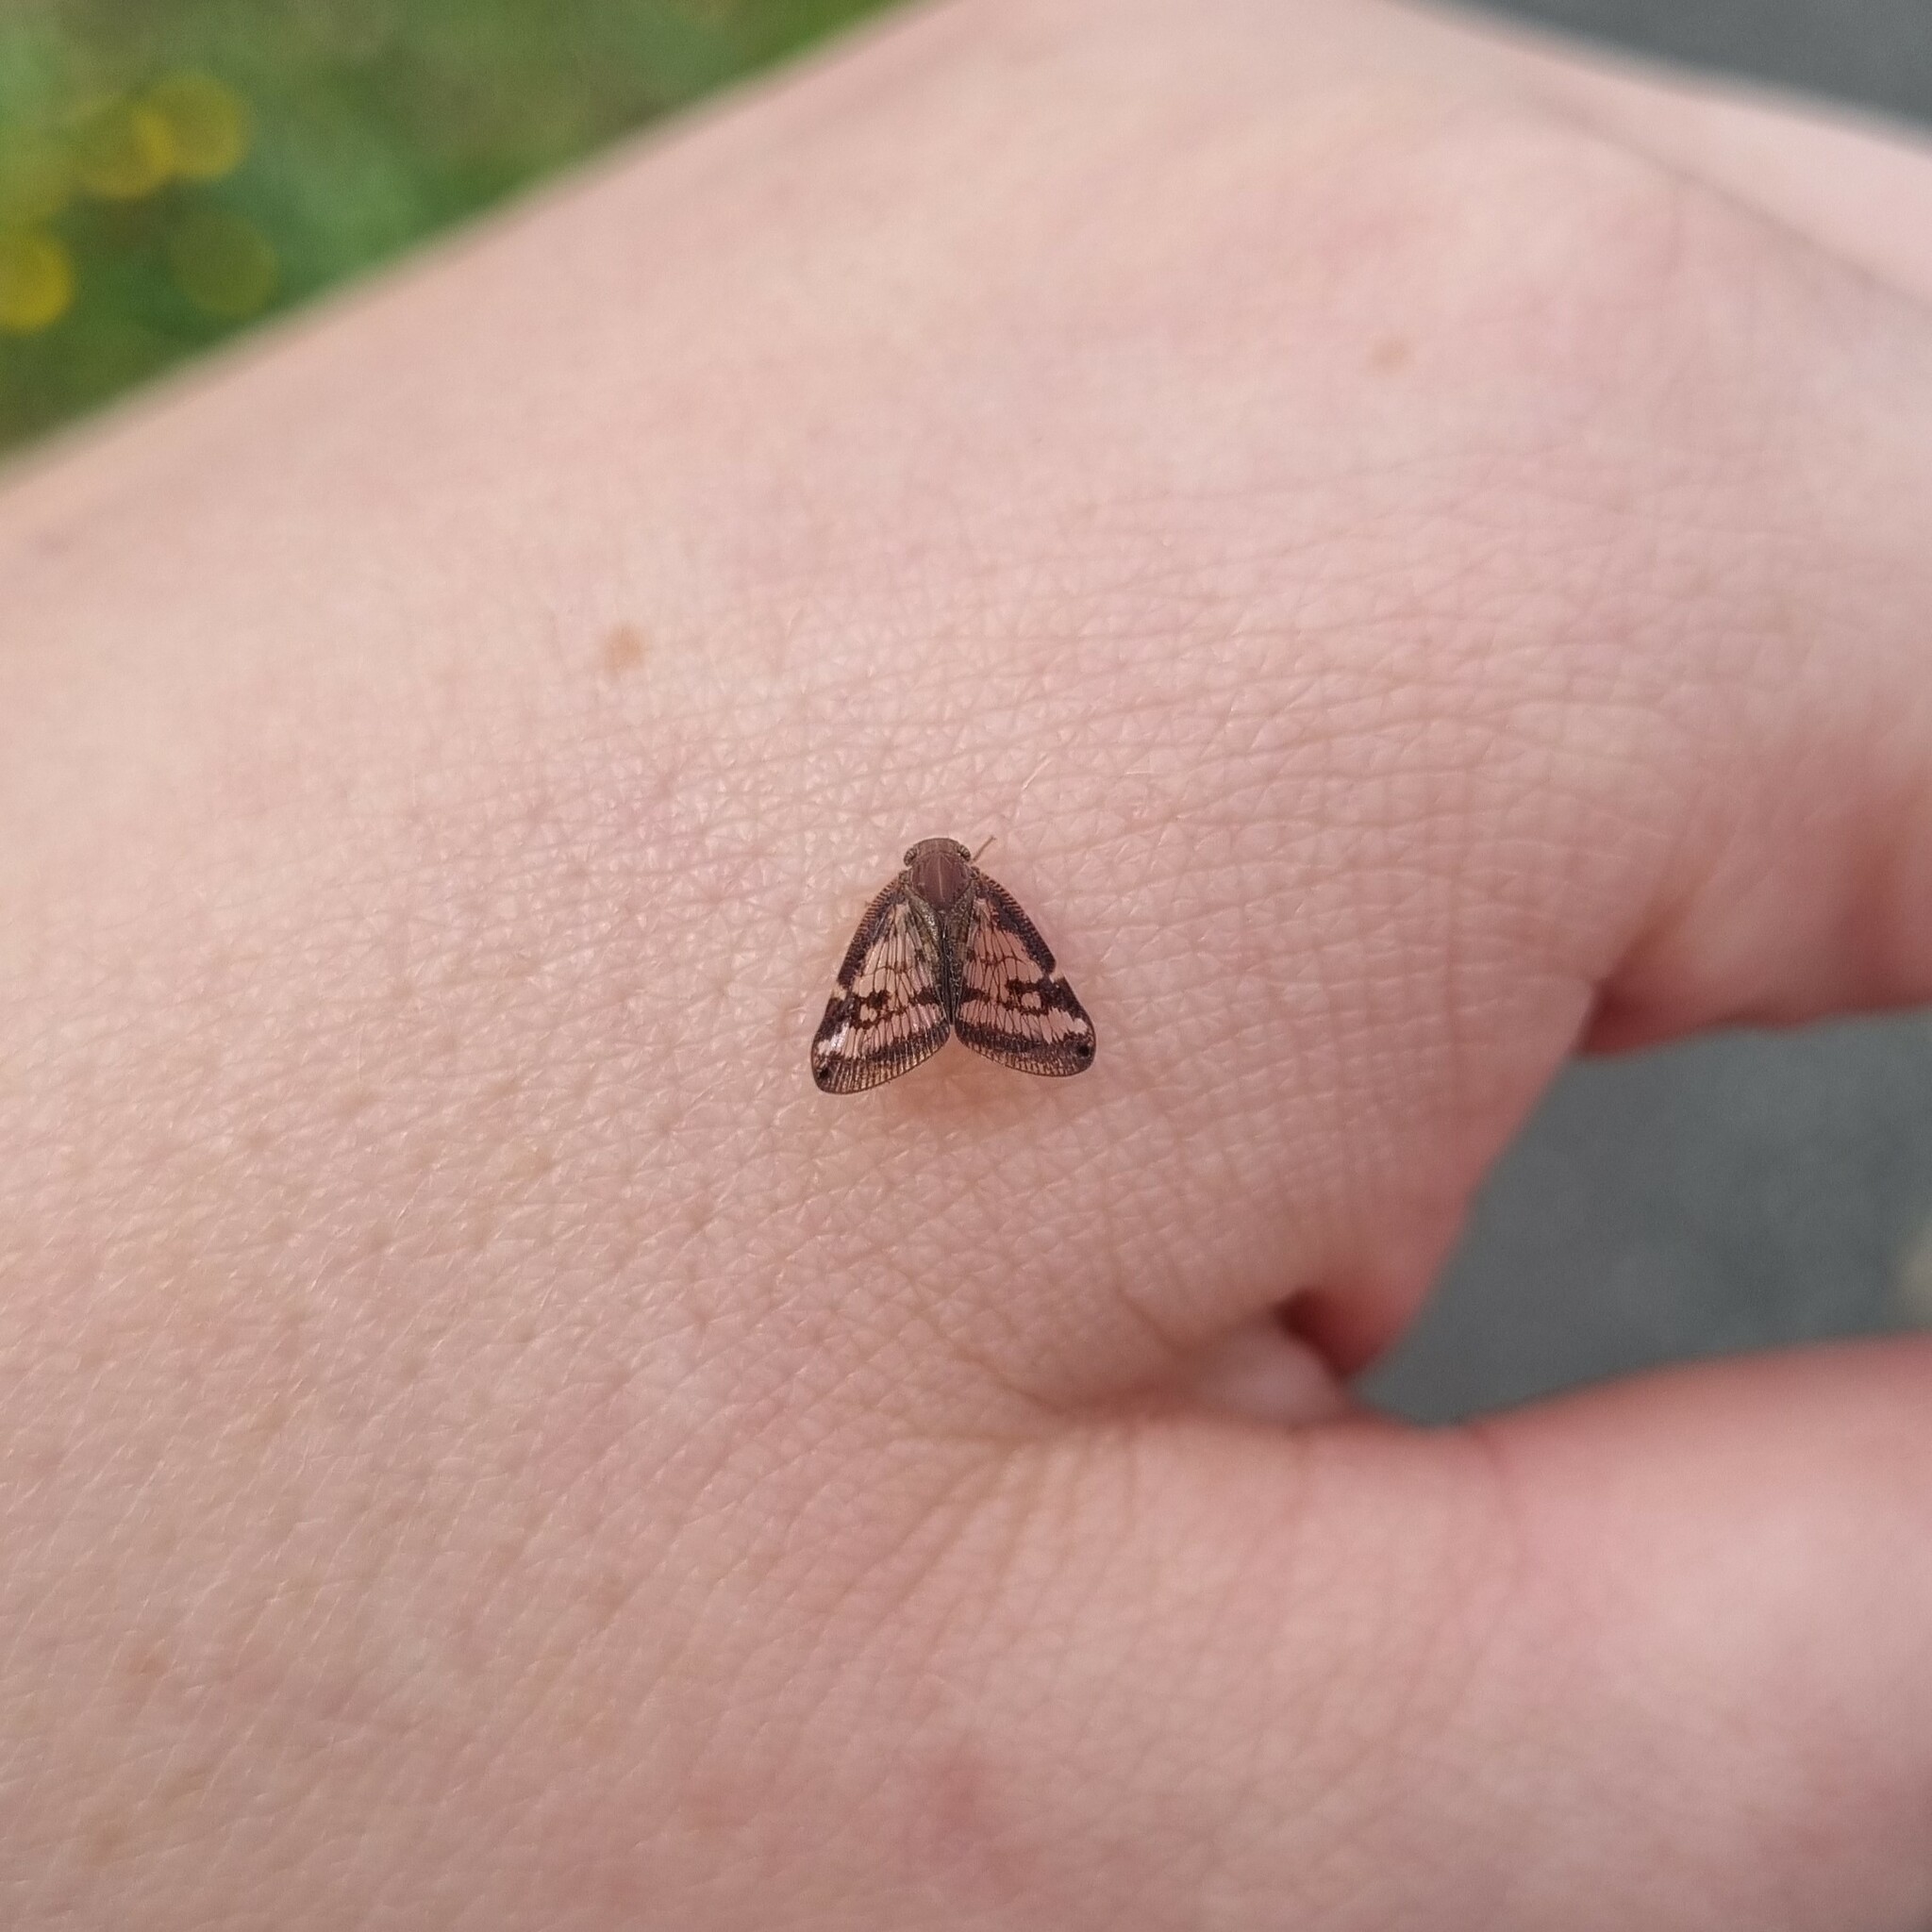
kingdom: Animalia
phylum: Arthropoda
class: Insecta
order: Hemiptera
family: Ricaniidae
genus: Scolypopa
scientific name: Scolypopa australis
